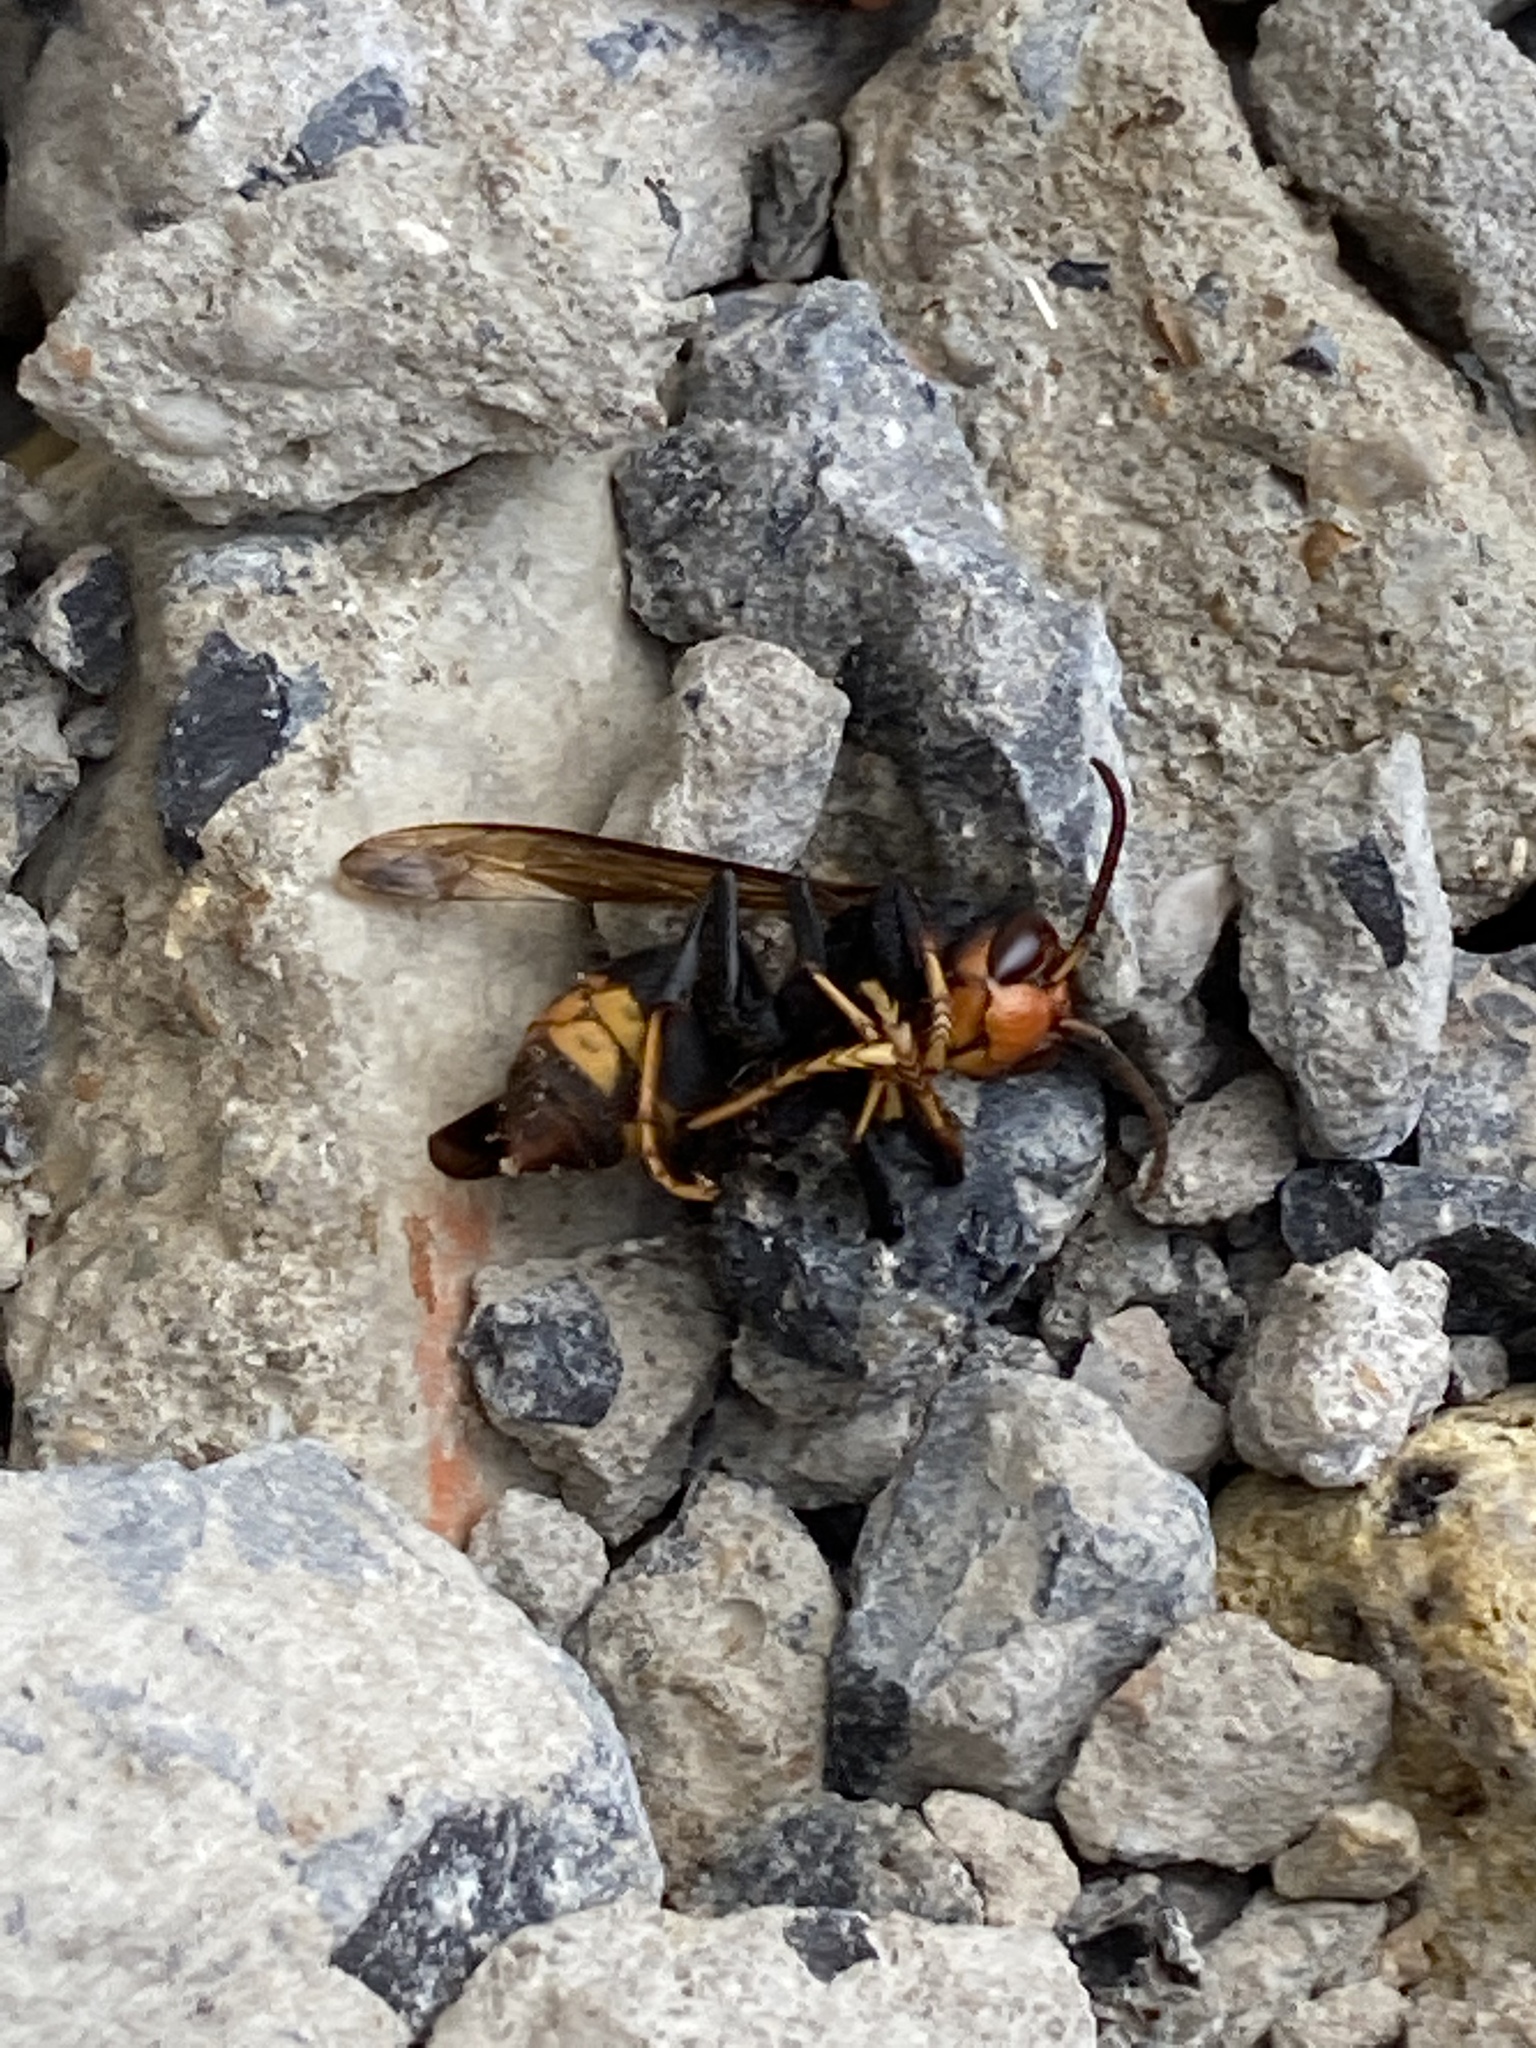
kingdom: Animalia
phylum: Arthropoda
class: Insecta
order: Hymenoptera
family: Vespidae
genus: Vespa
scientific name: Vespa velutina
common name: Asian hornet
